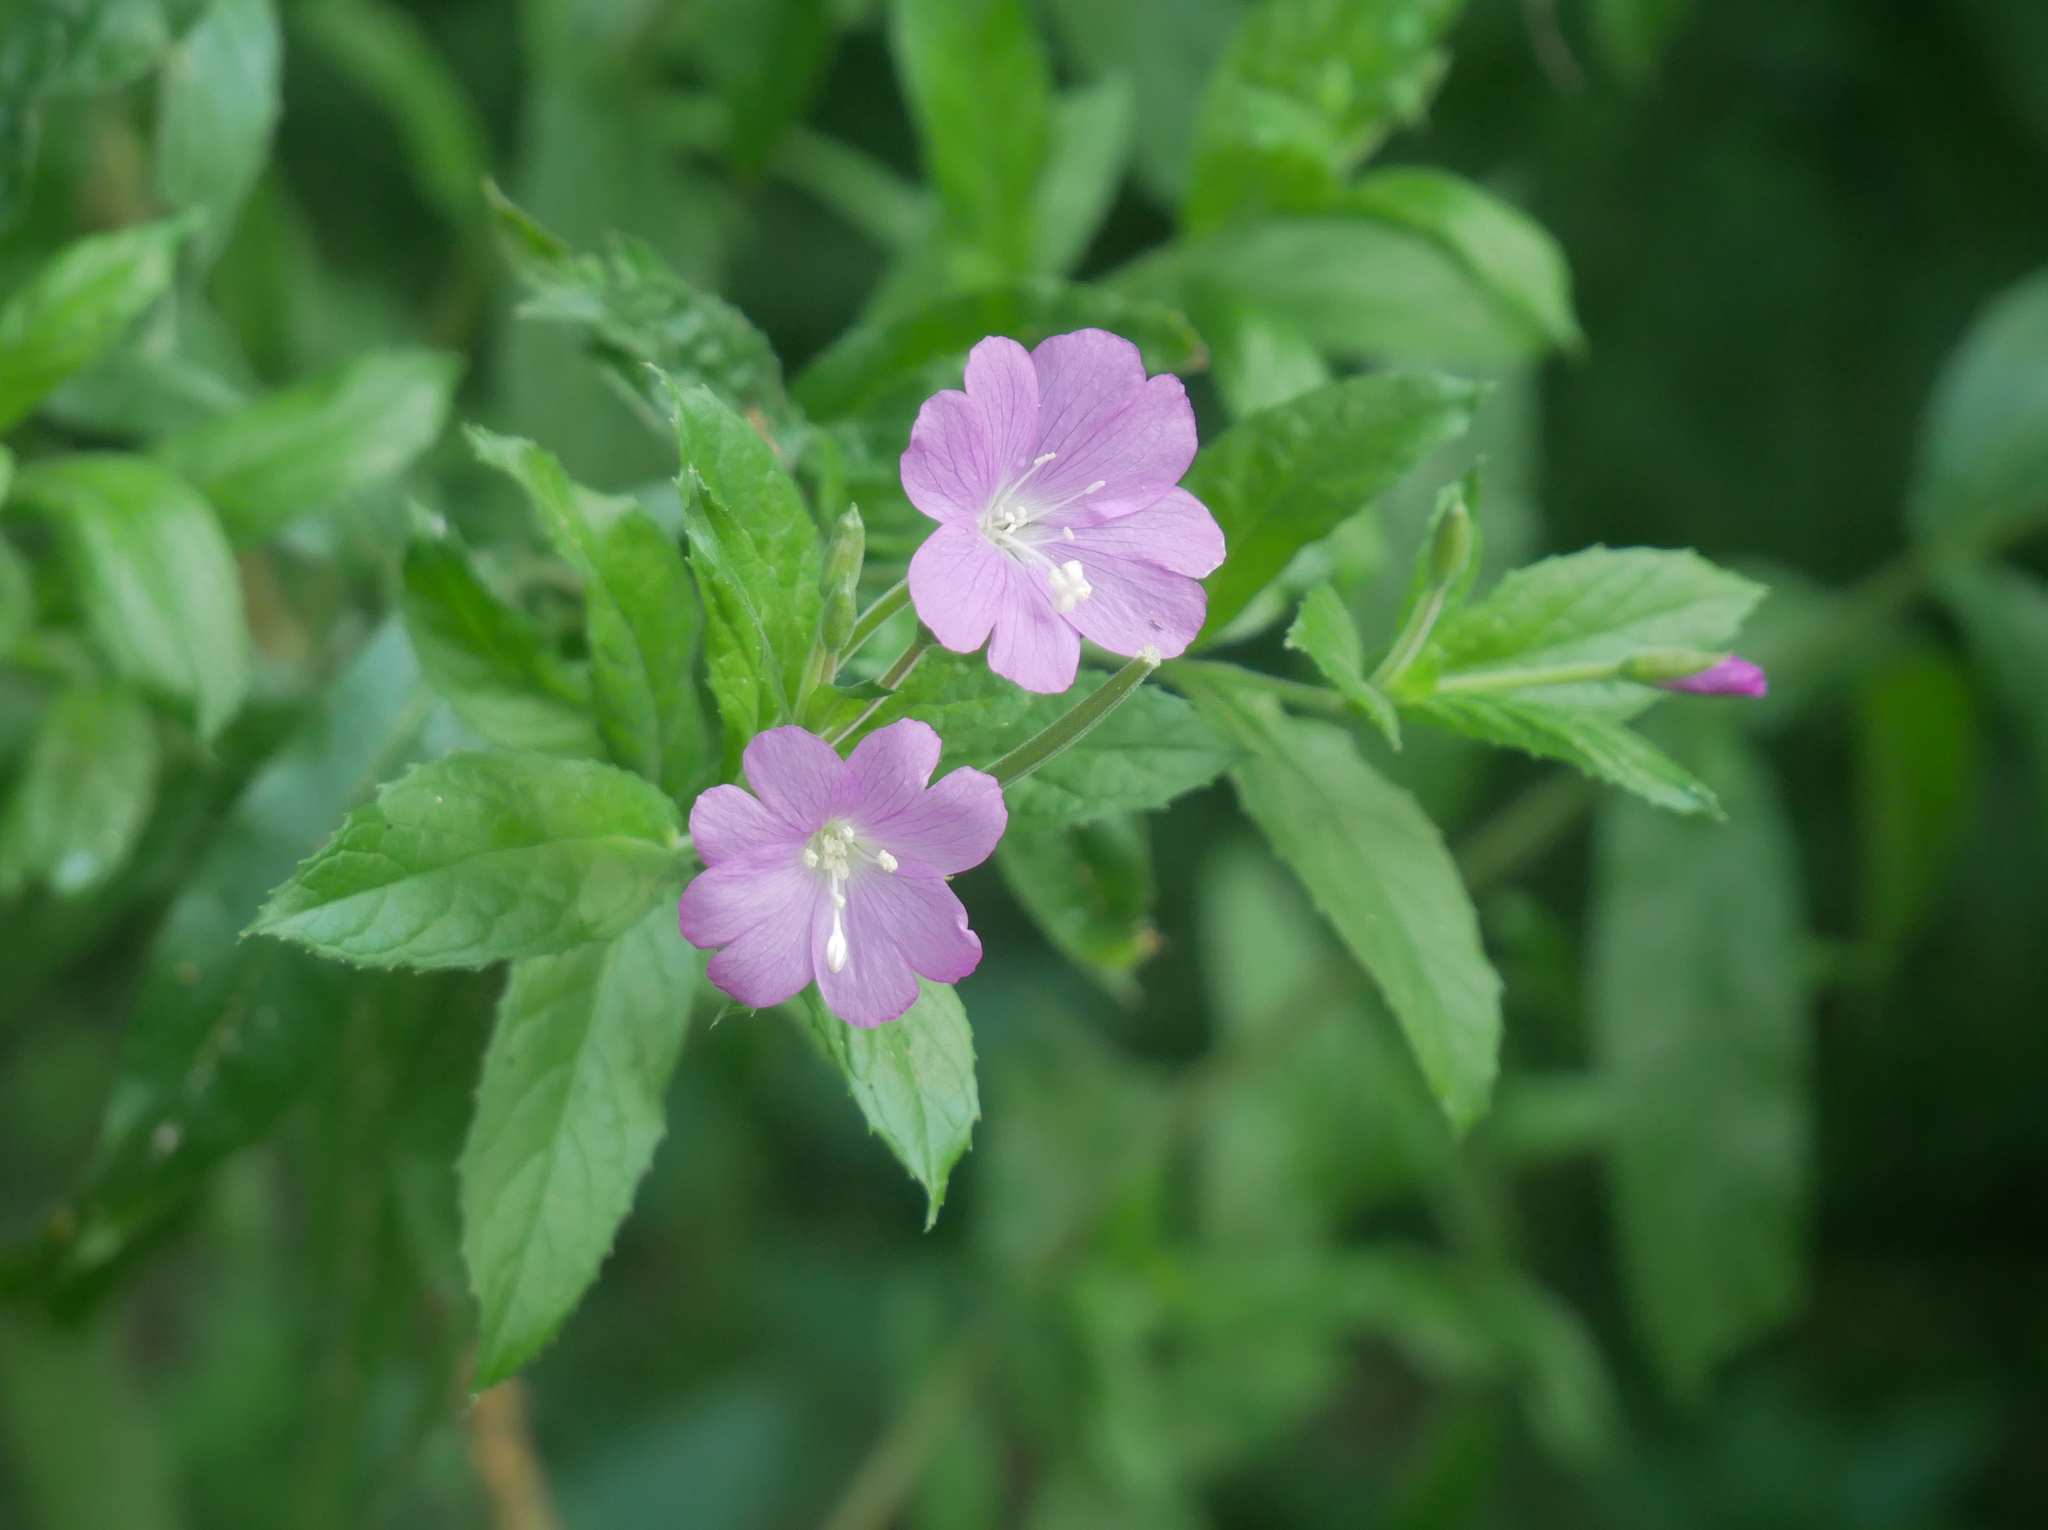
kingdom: Plantae
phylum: Tracheophyta
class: Magnoliopsida
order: Myrtales
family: Onagraceae
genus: Epilobium
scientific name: Epilobium hirsutum
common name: Great willowherb
